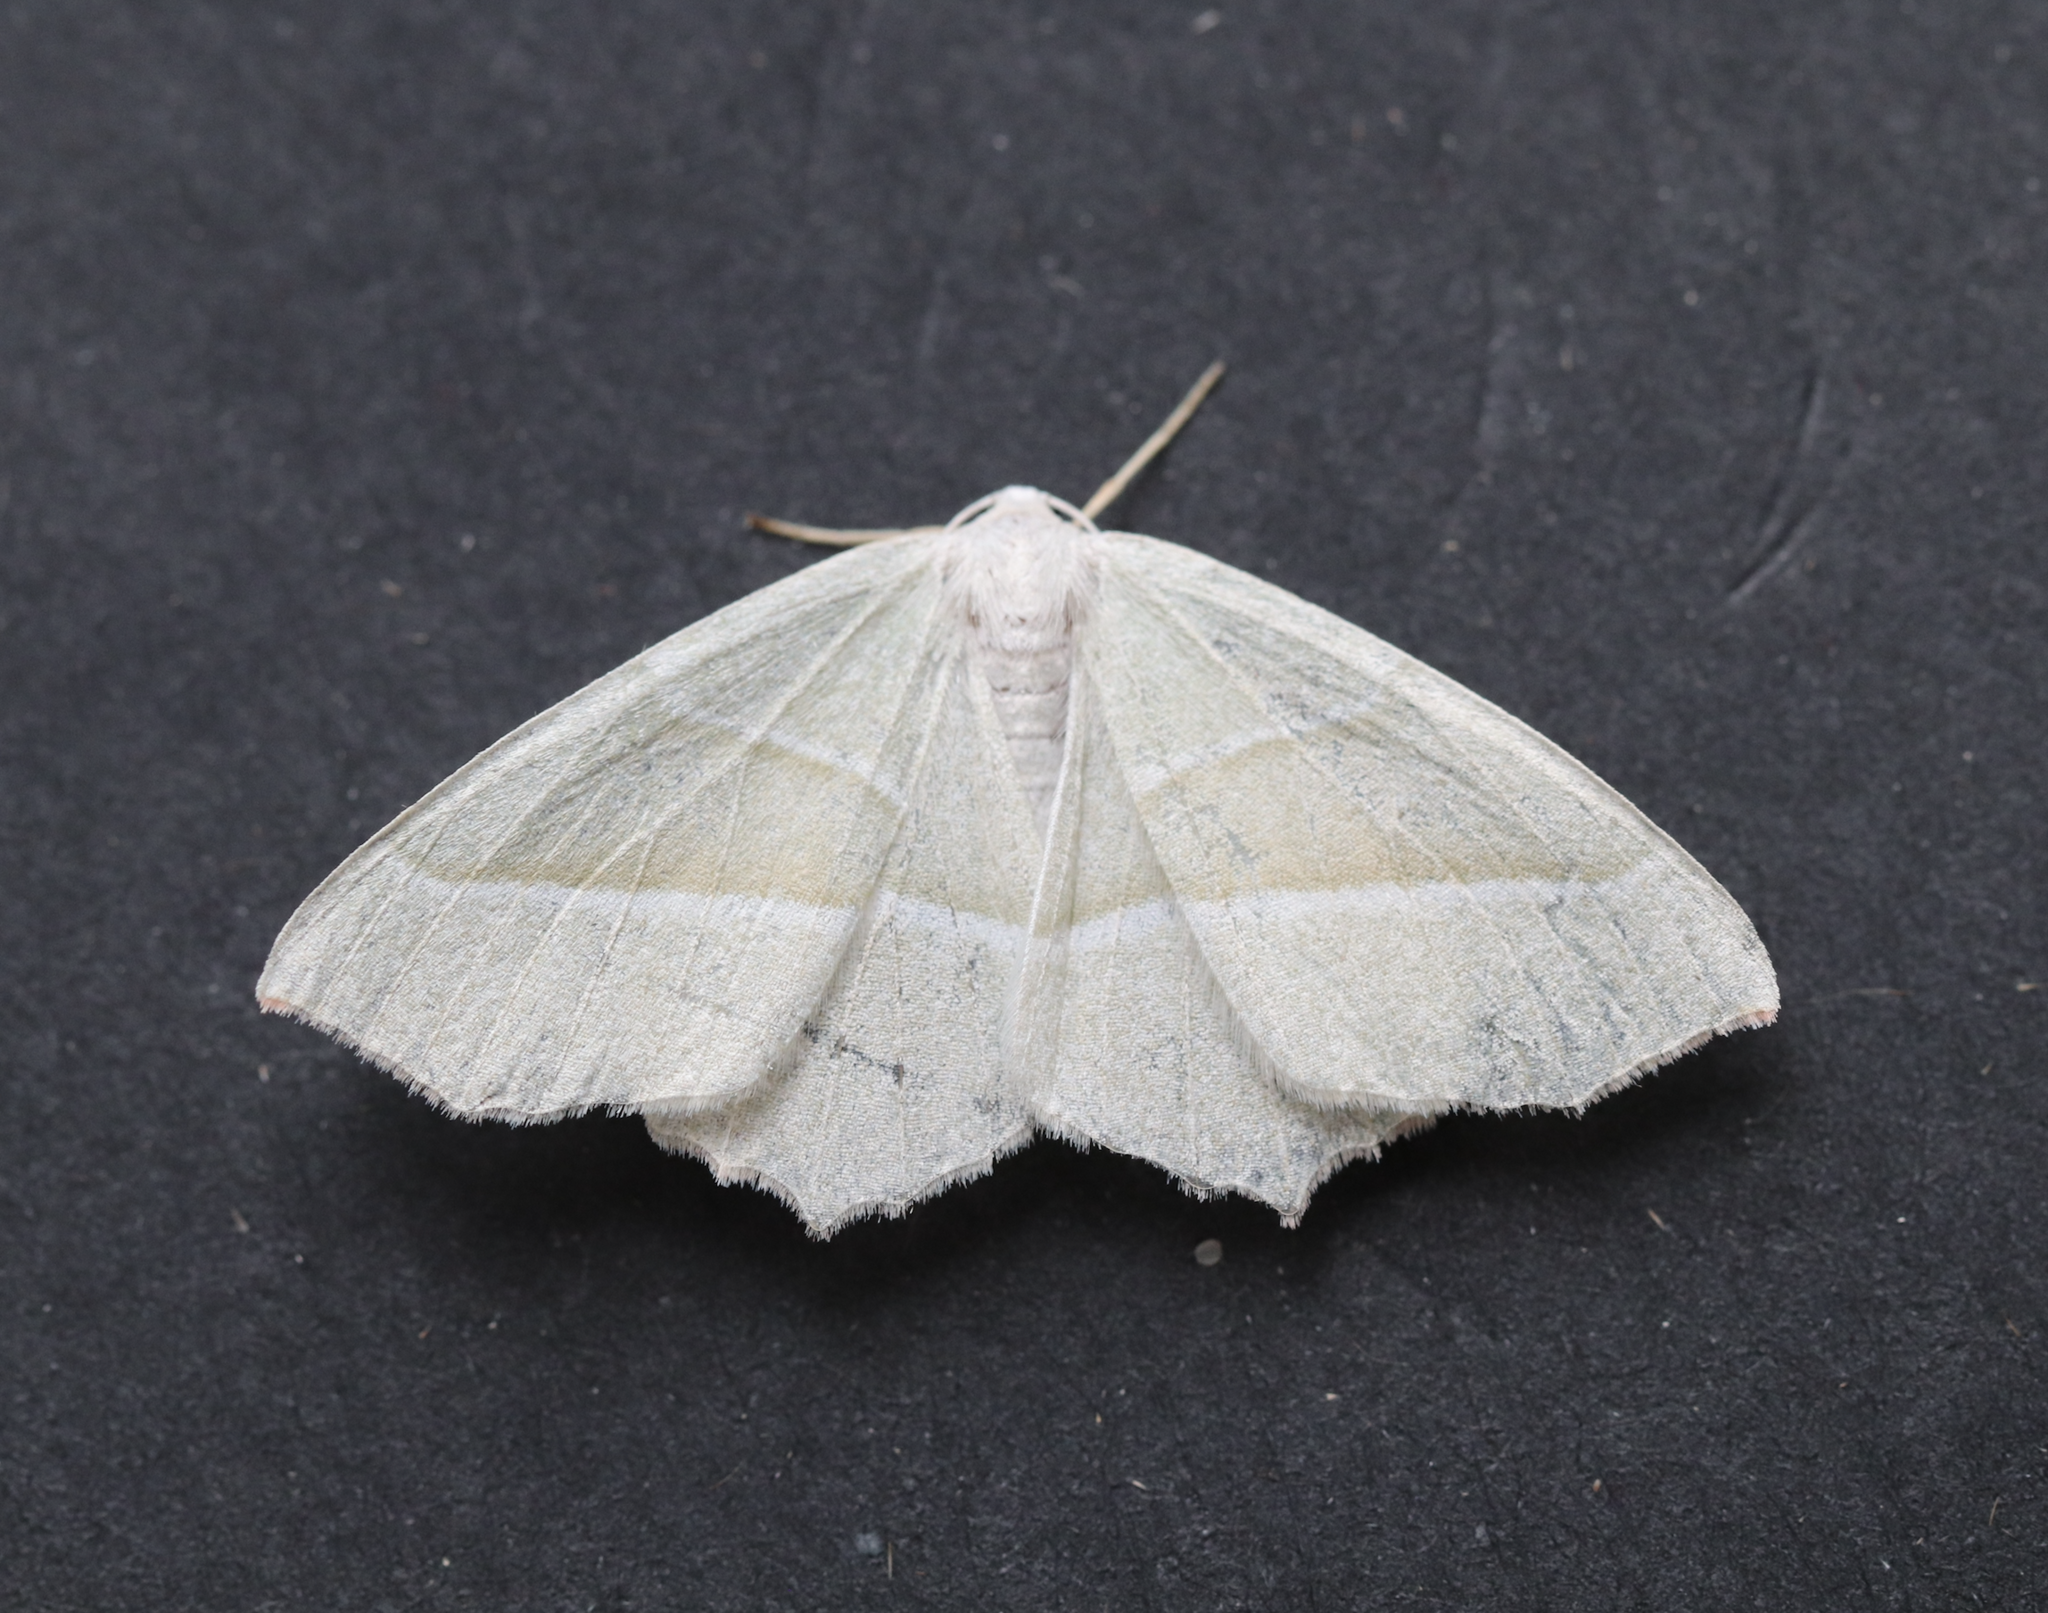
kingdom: Animalia
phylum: Arthropoda
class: Insecta
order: Lepidoptera
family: Geometridae
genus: Campaea
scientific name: Campaea margaritaria
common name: Light emerald
